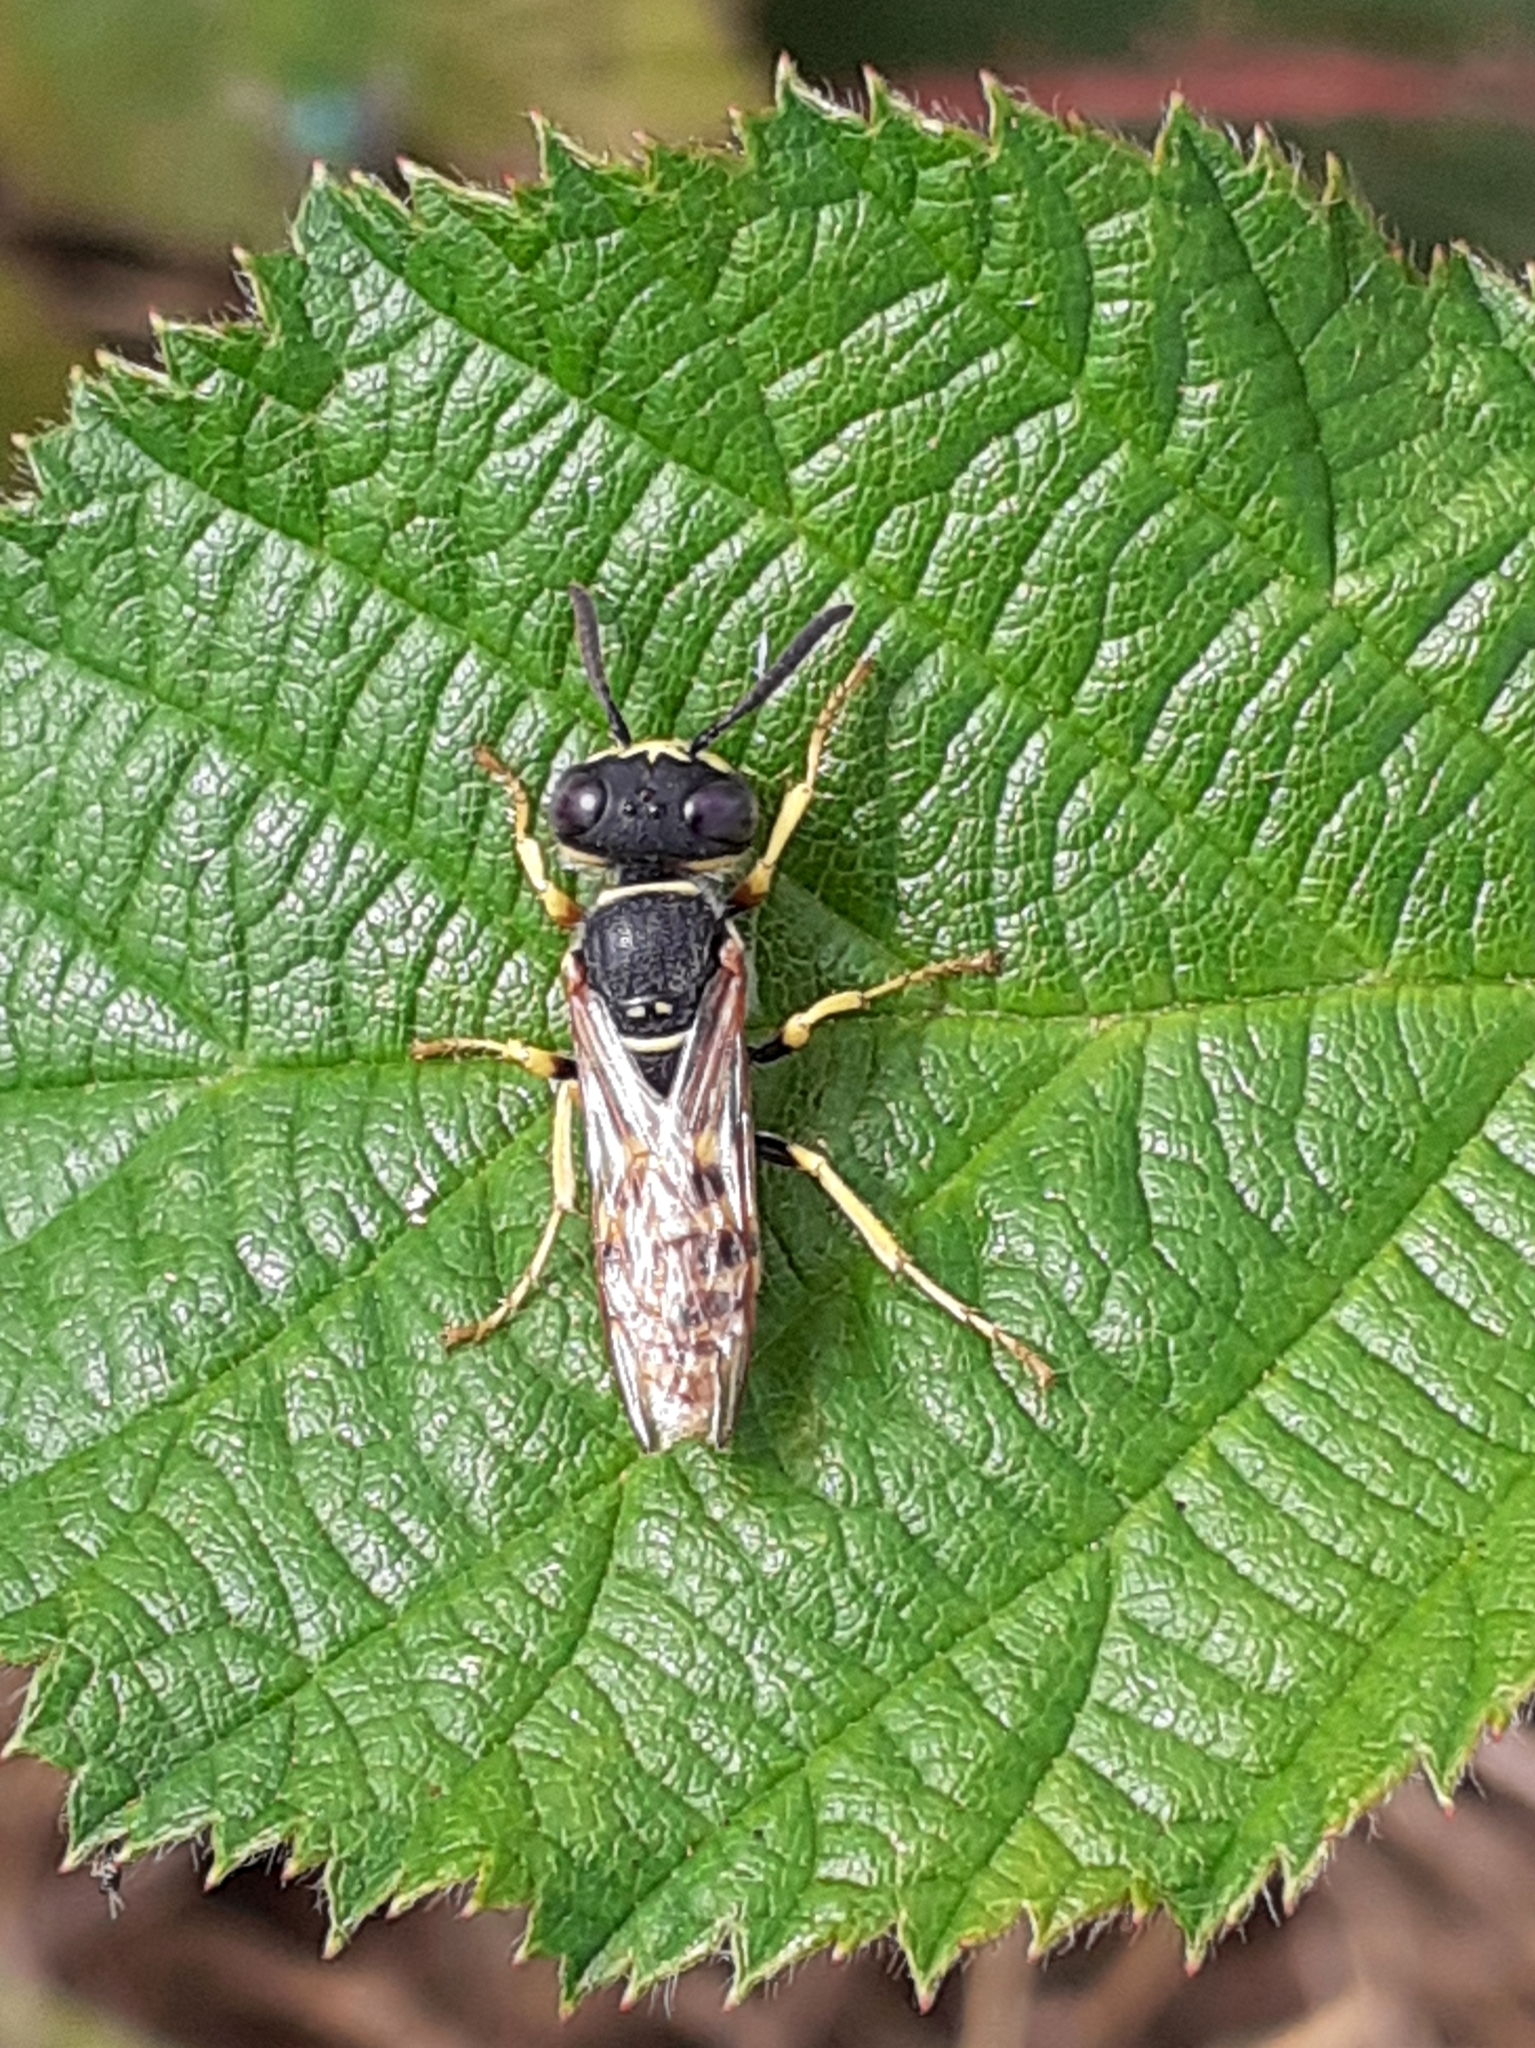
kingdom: Animalia
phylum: Arthropoda
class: Insecta
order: Hymenoptera
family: Crabronidae
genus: Philanthus
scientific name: Philanthus triangulum
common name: Bee wolf
